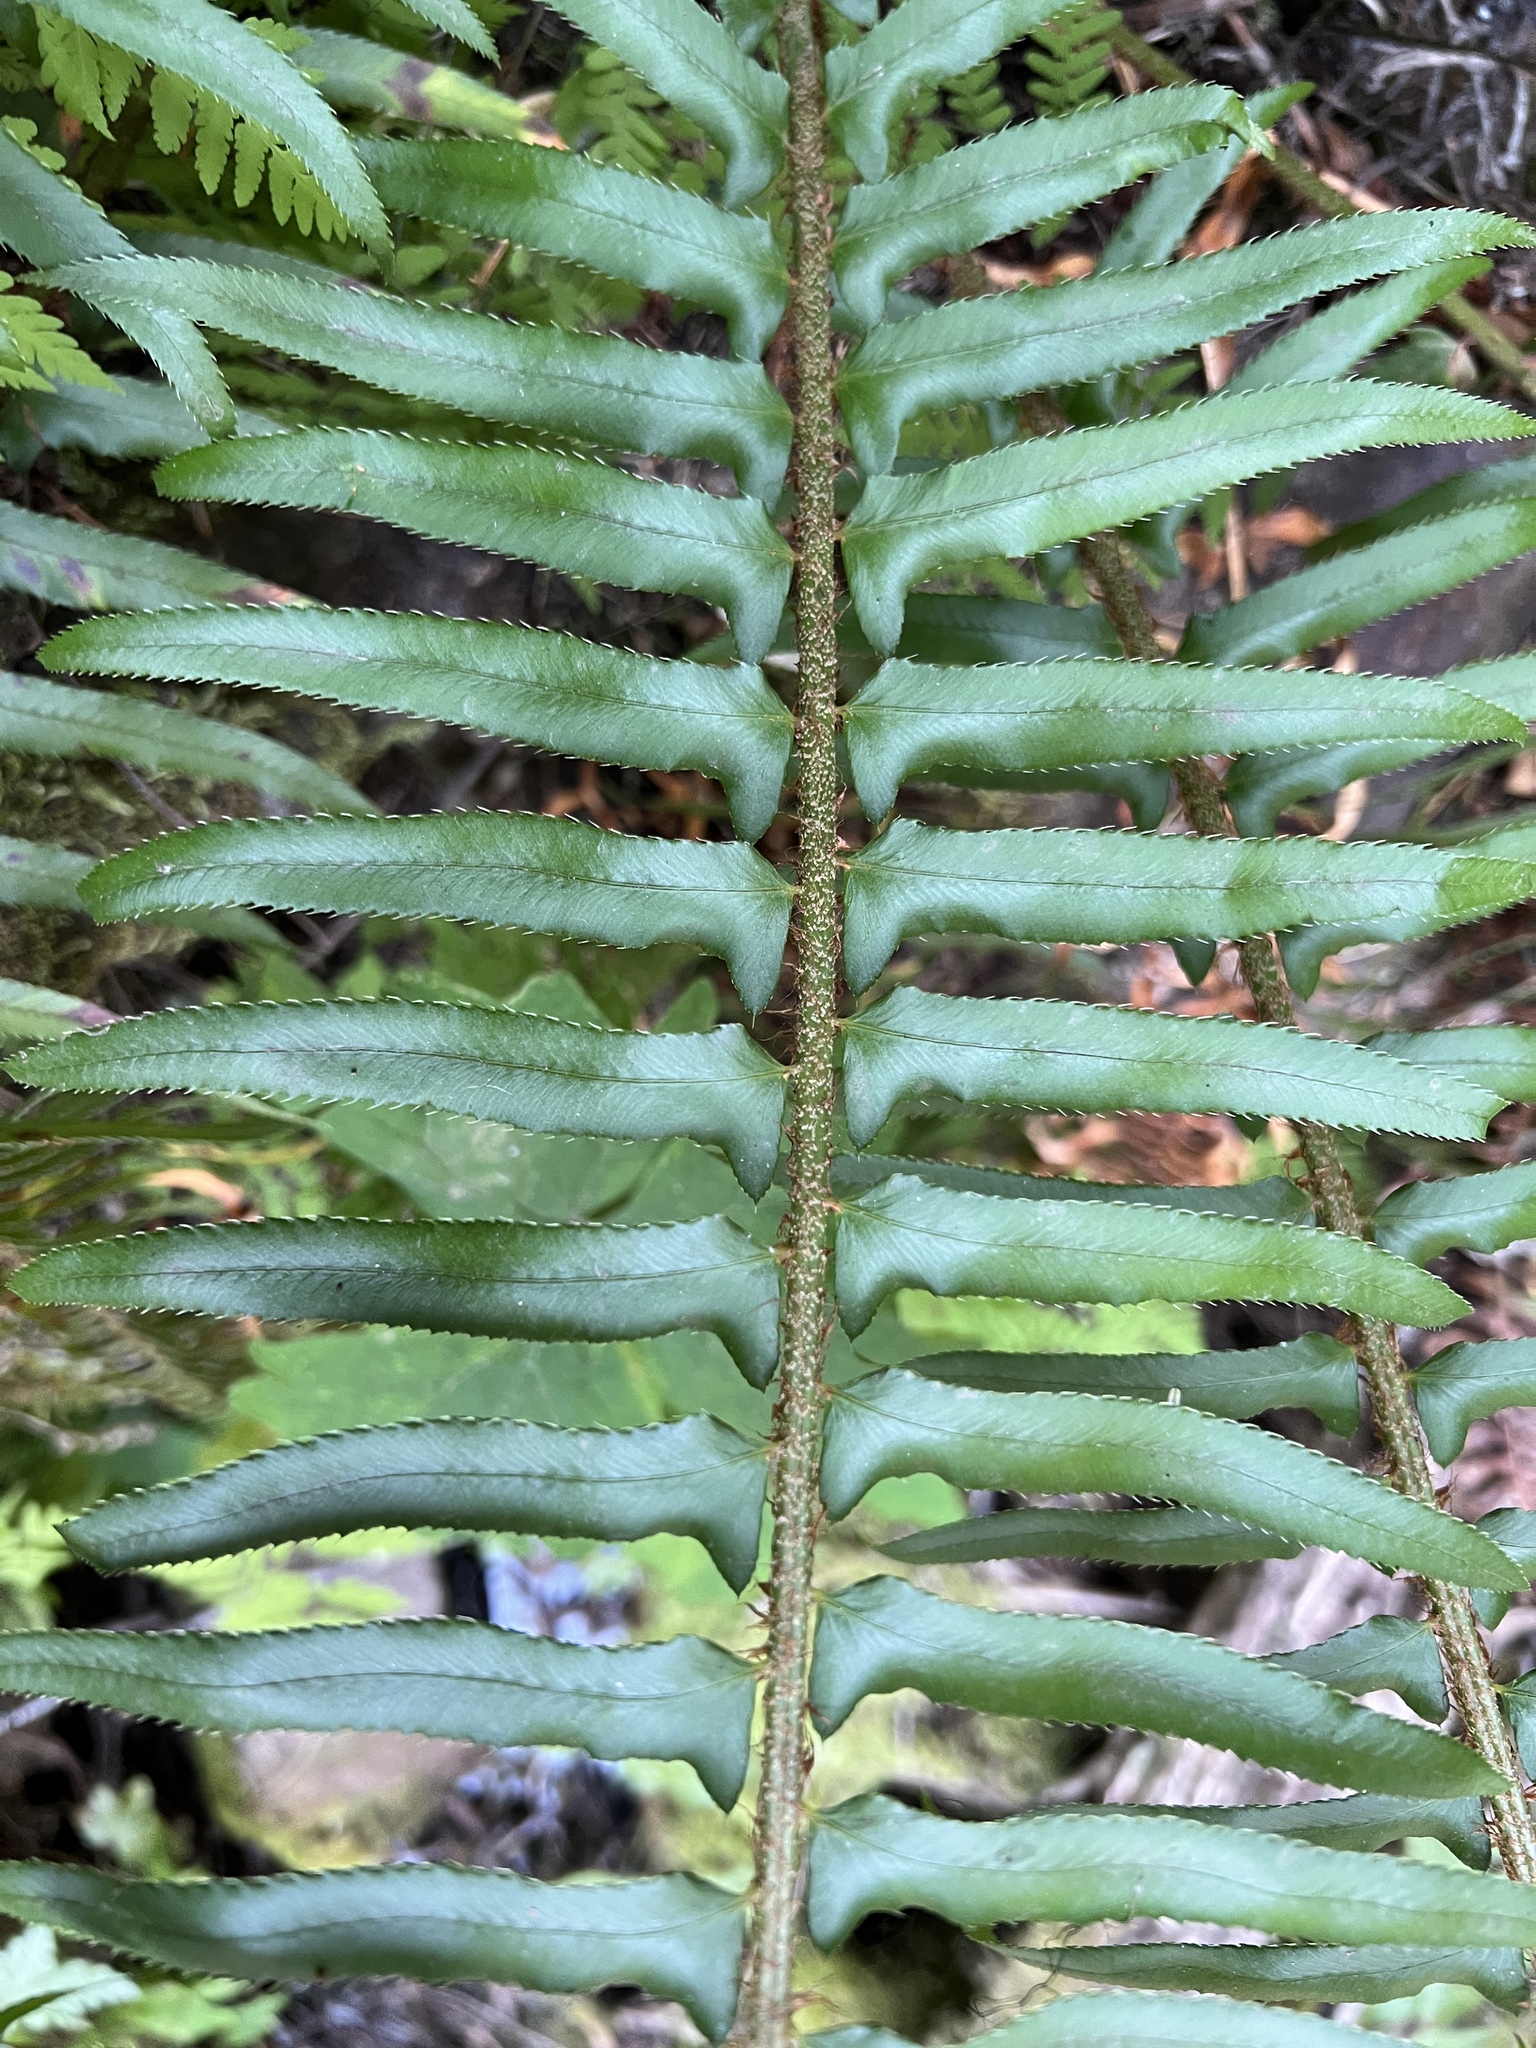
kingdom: Plantae
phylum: Tracheophyta
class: Polypodiopsida
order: Polypodiales
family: Dryopteridaceae
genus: Polystichum
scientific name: Polystichum munitum
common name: Western sword-fern
